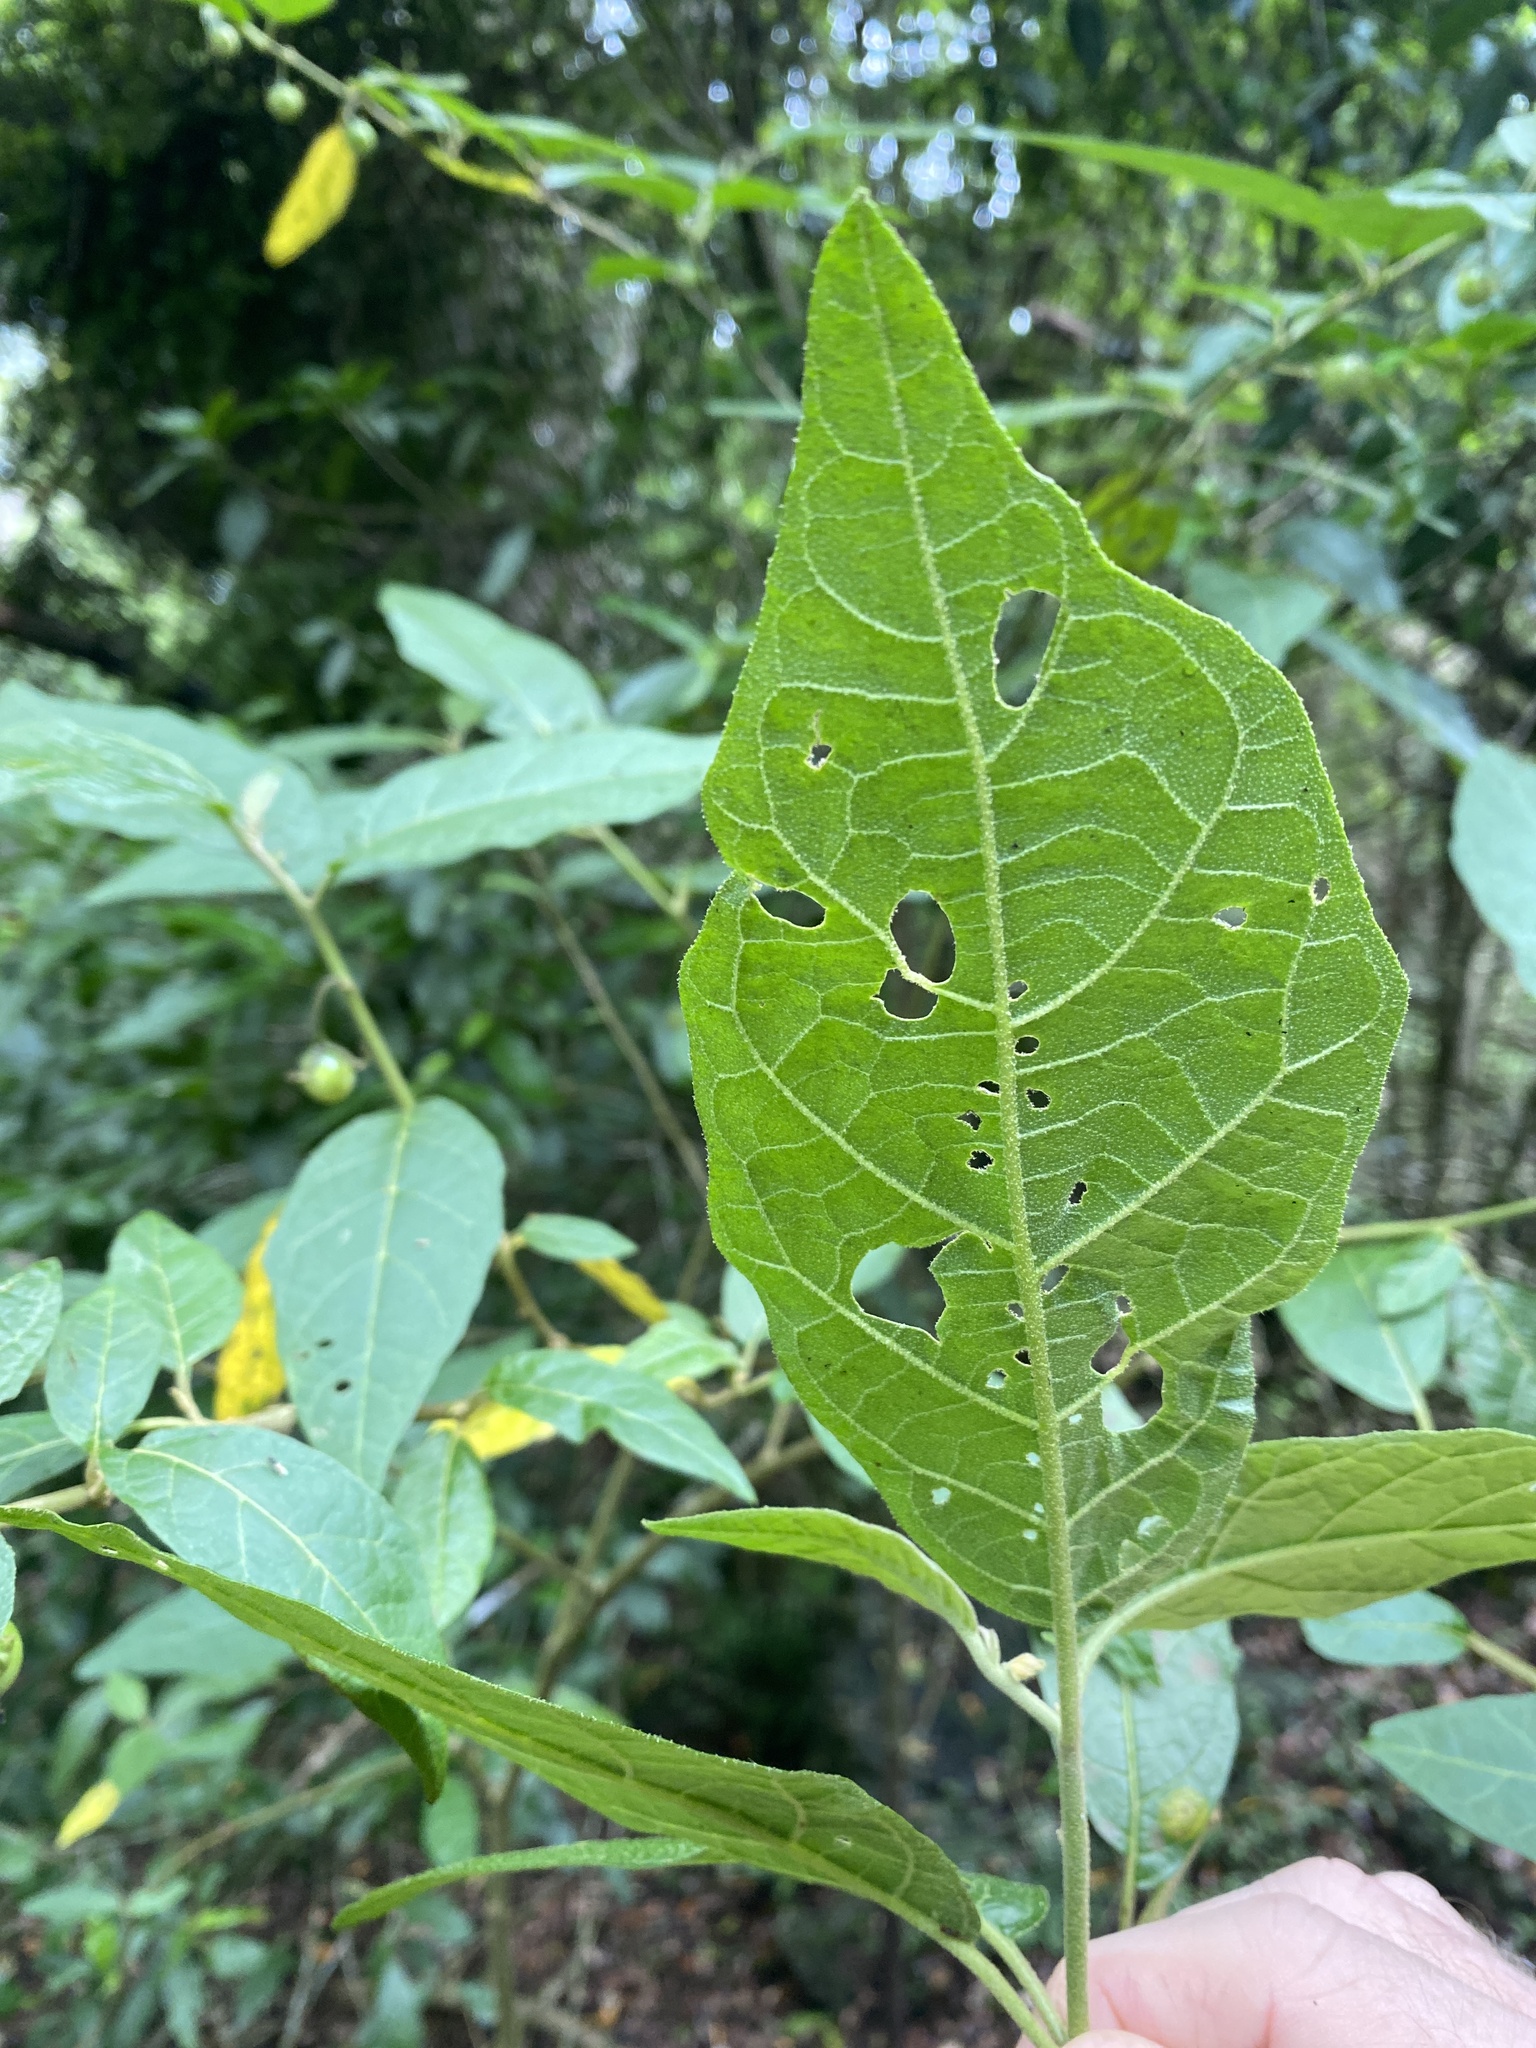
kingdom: Plantae
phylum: Tracheophyta
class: Magnoliopsida
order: Solanales
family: Solanaceae
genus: Solanum
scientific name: Solanum rixosum
